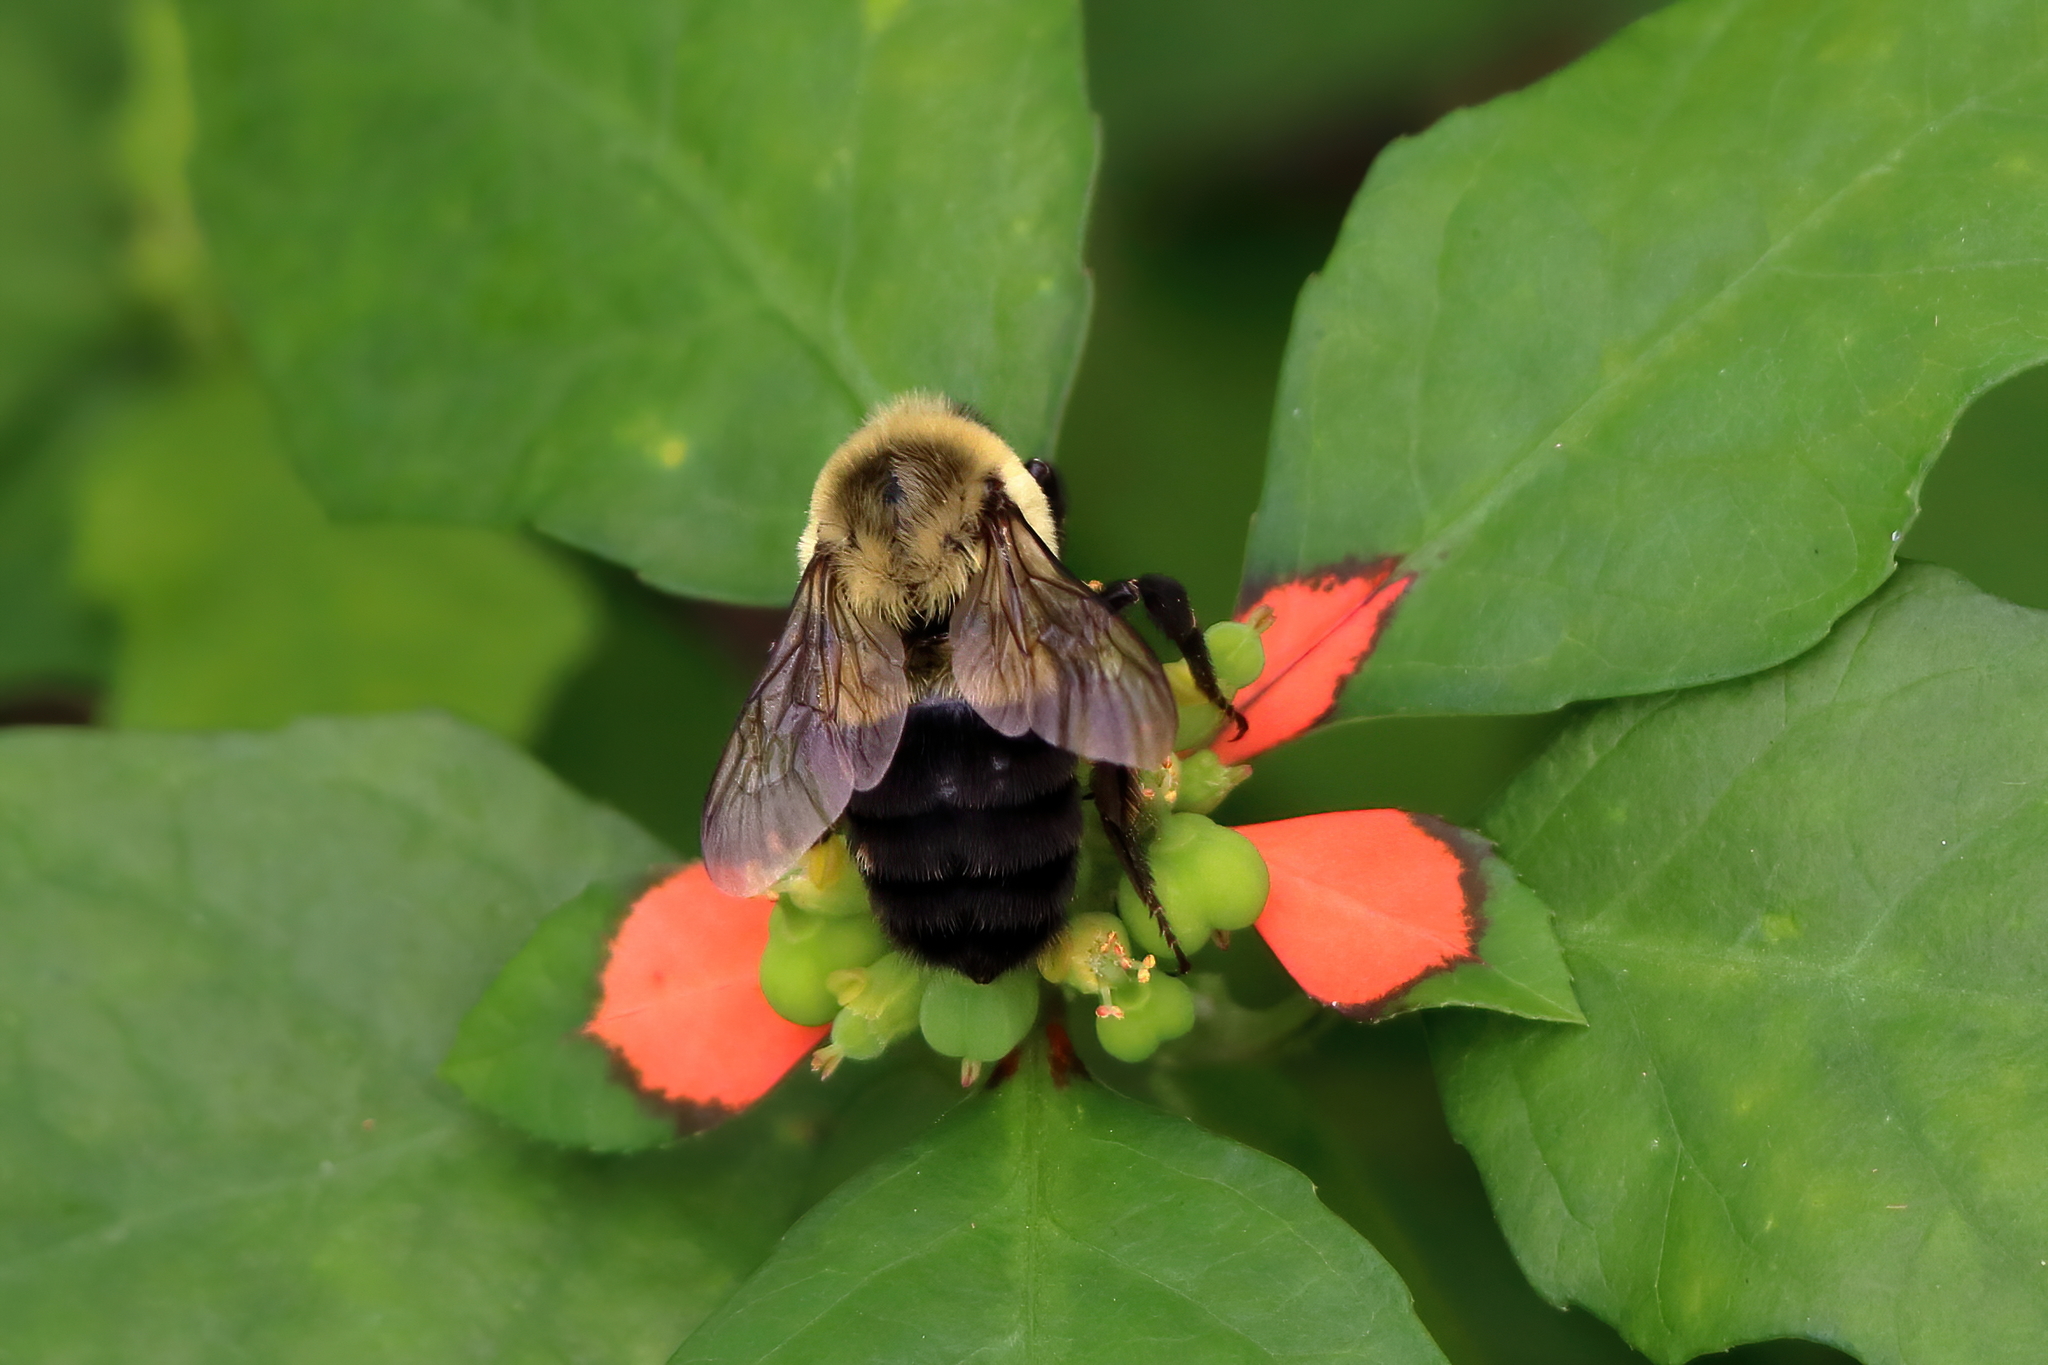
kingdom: Animalia
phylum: Arthropoda
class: Insecta
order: Hymenoptera
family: Apidae
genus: Bombus
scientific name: Bombus impatiens
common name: Common eastern bumble bee
